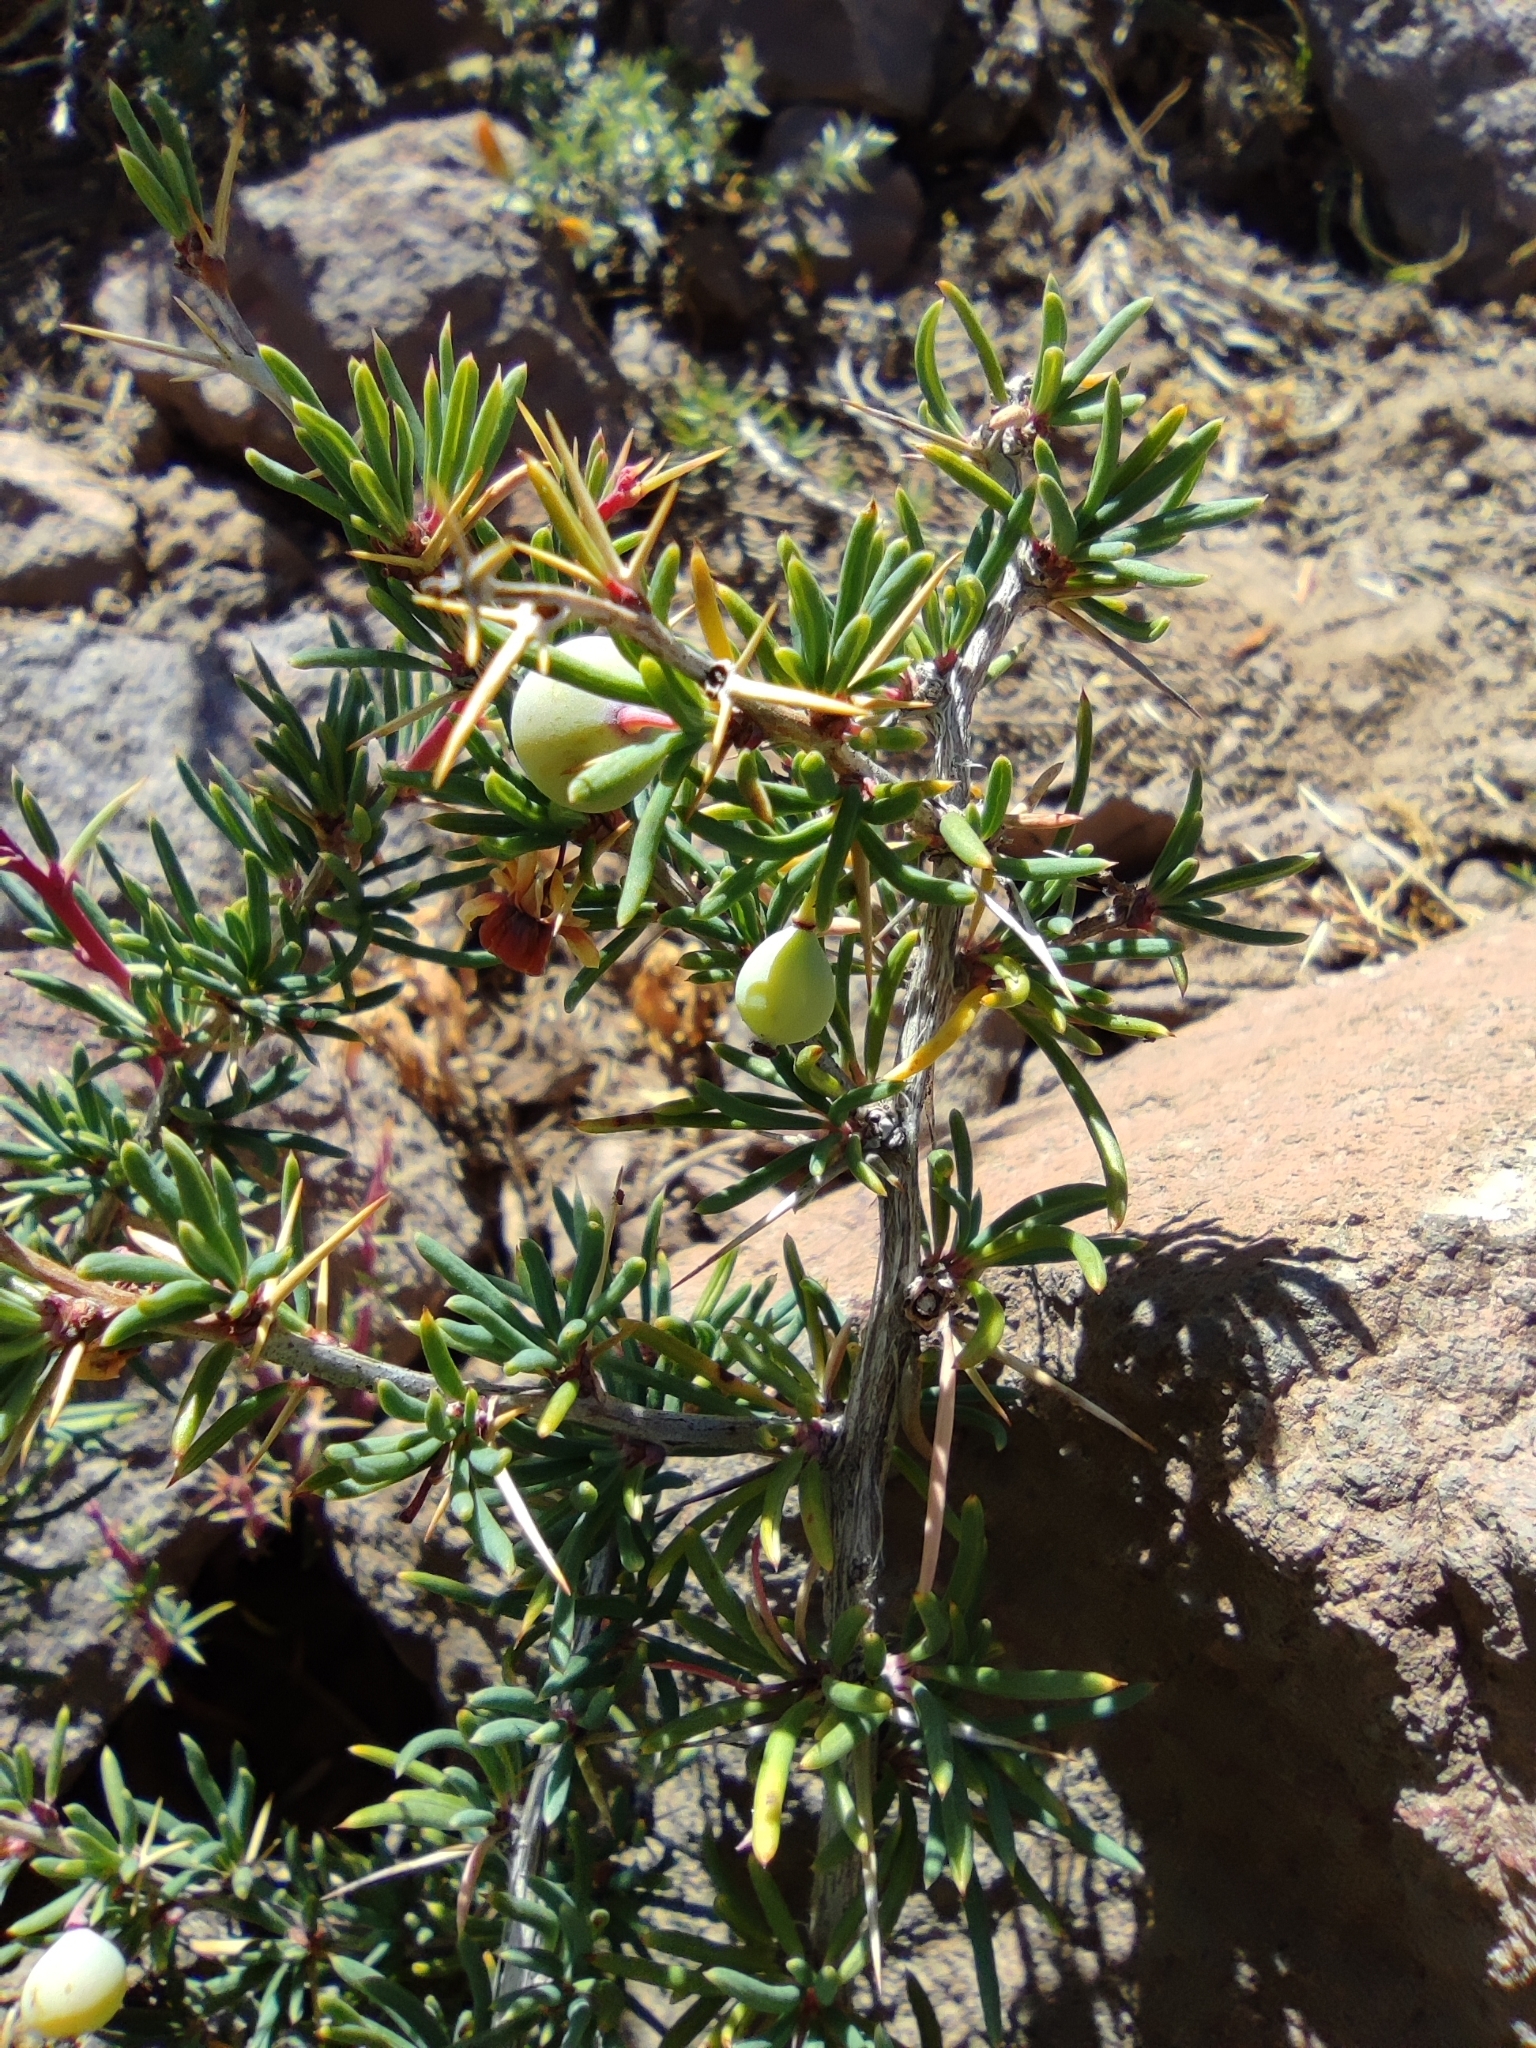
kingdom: Plantae
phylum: Tracheophyta
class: Magnoliopsida
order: Ranunculales
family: Berberidaceae
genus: Berberis
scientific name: Berberis empetrifolia
